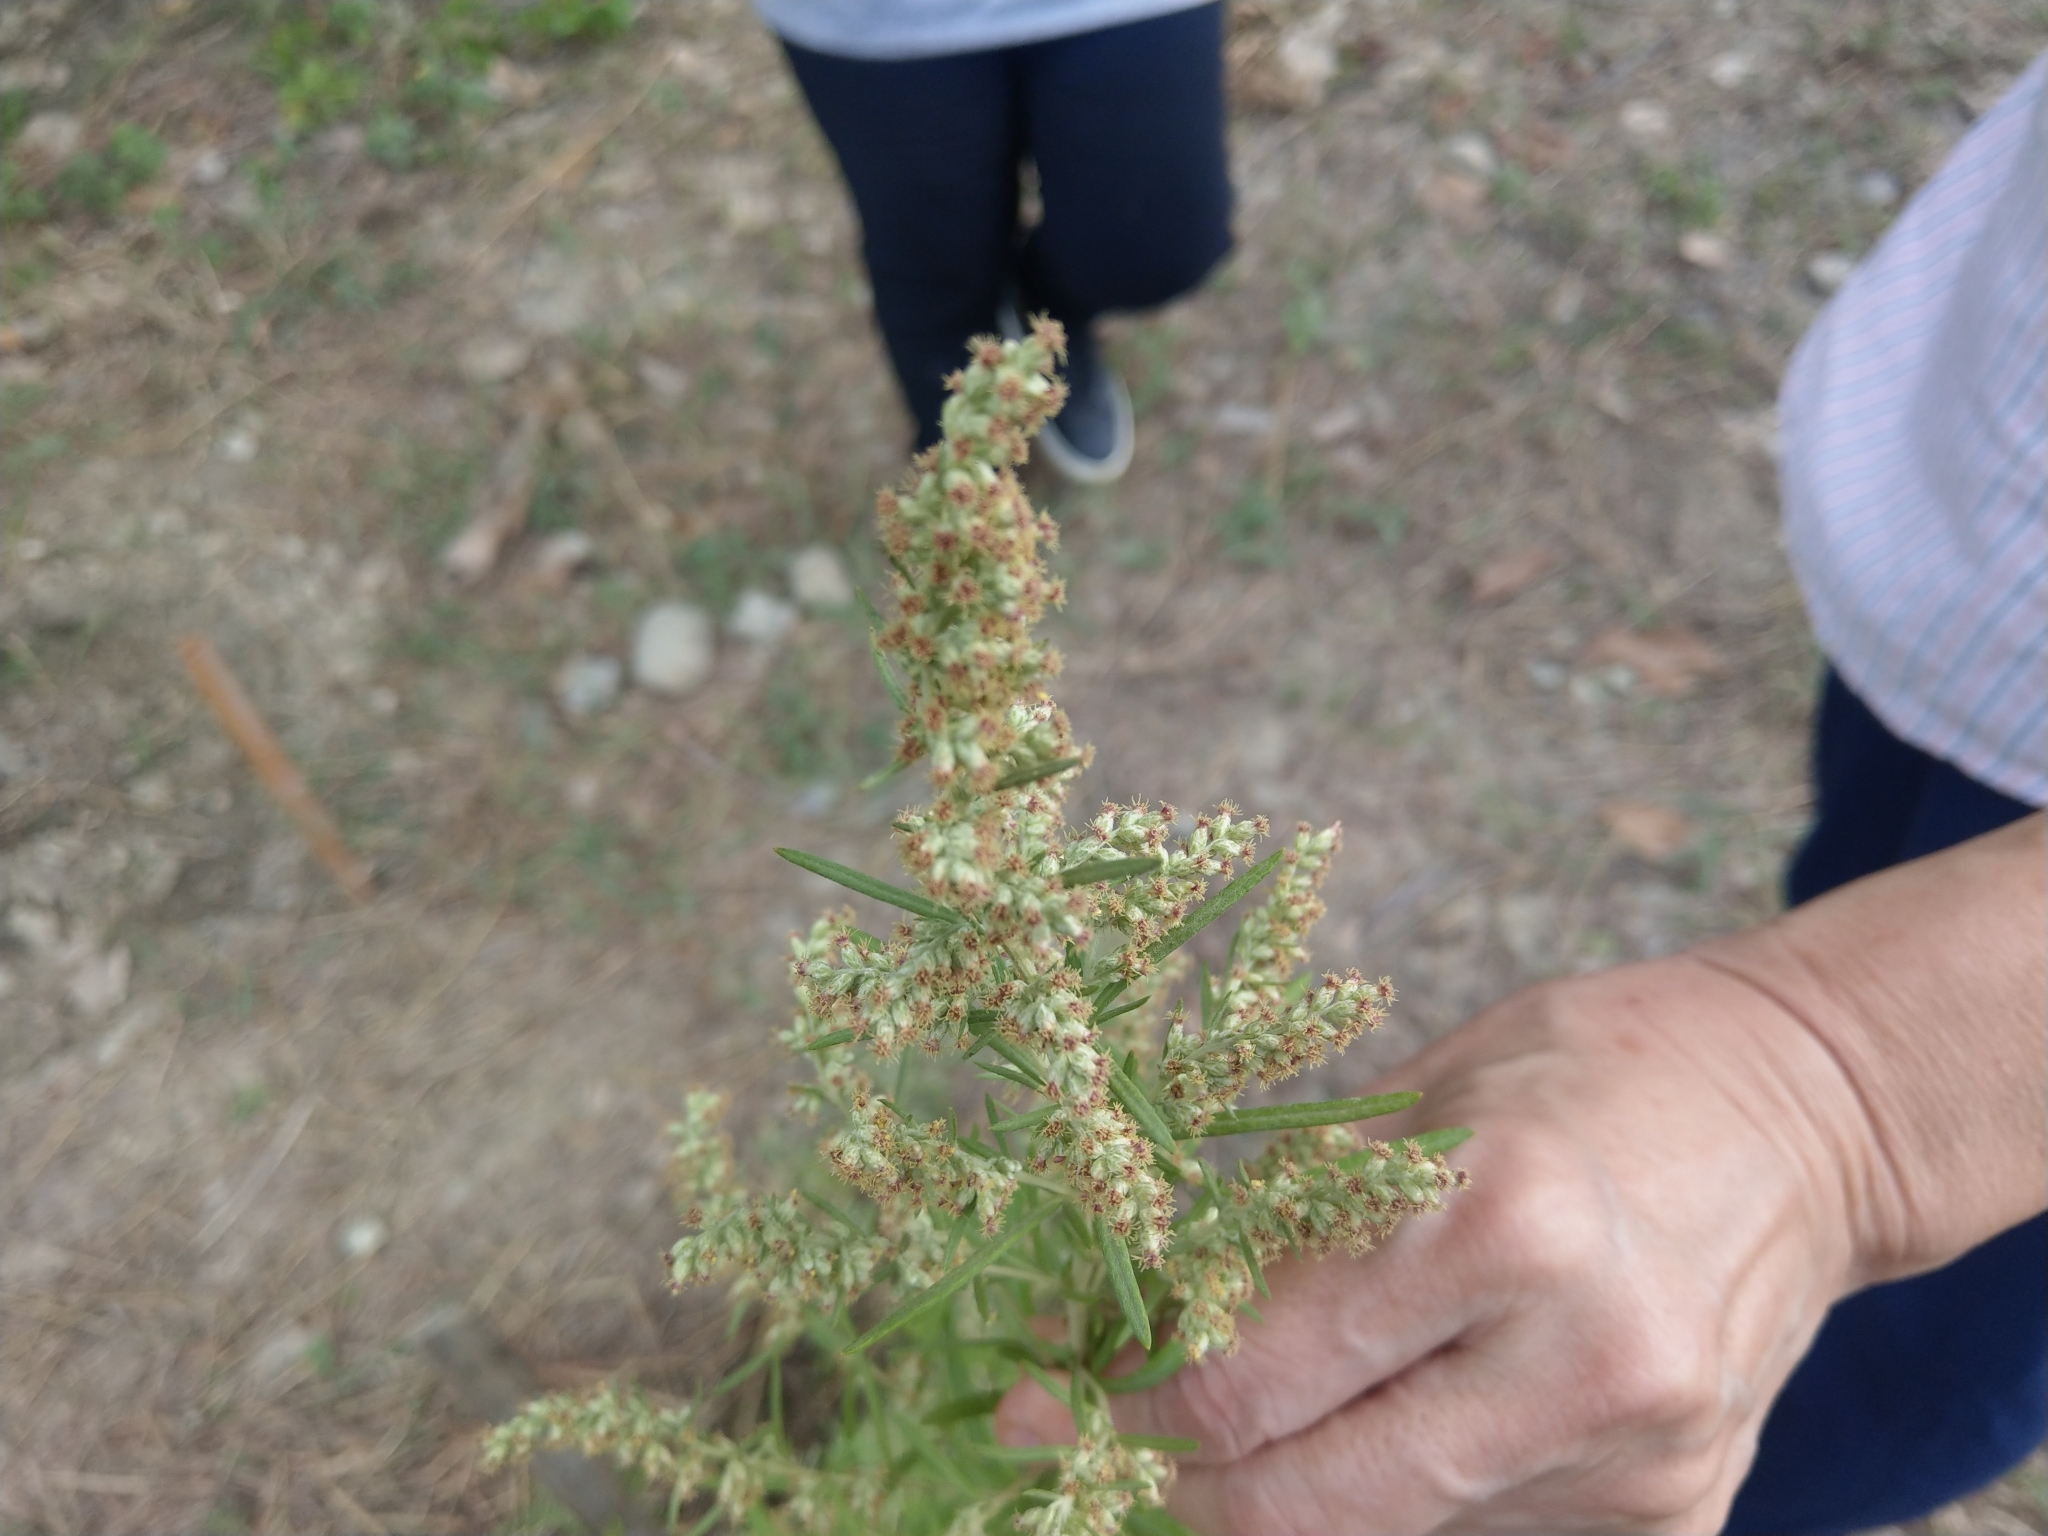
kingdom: Plantae
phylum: Tracheophyta
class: Magnoliopsida
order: Asterales
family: Asteraceae
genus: Artemisia
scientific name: Artemisia indica
